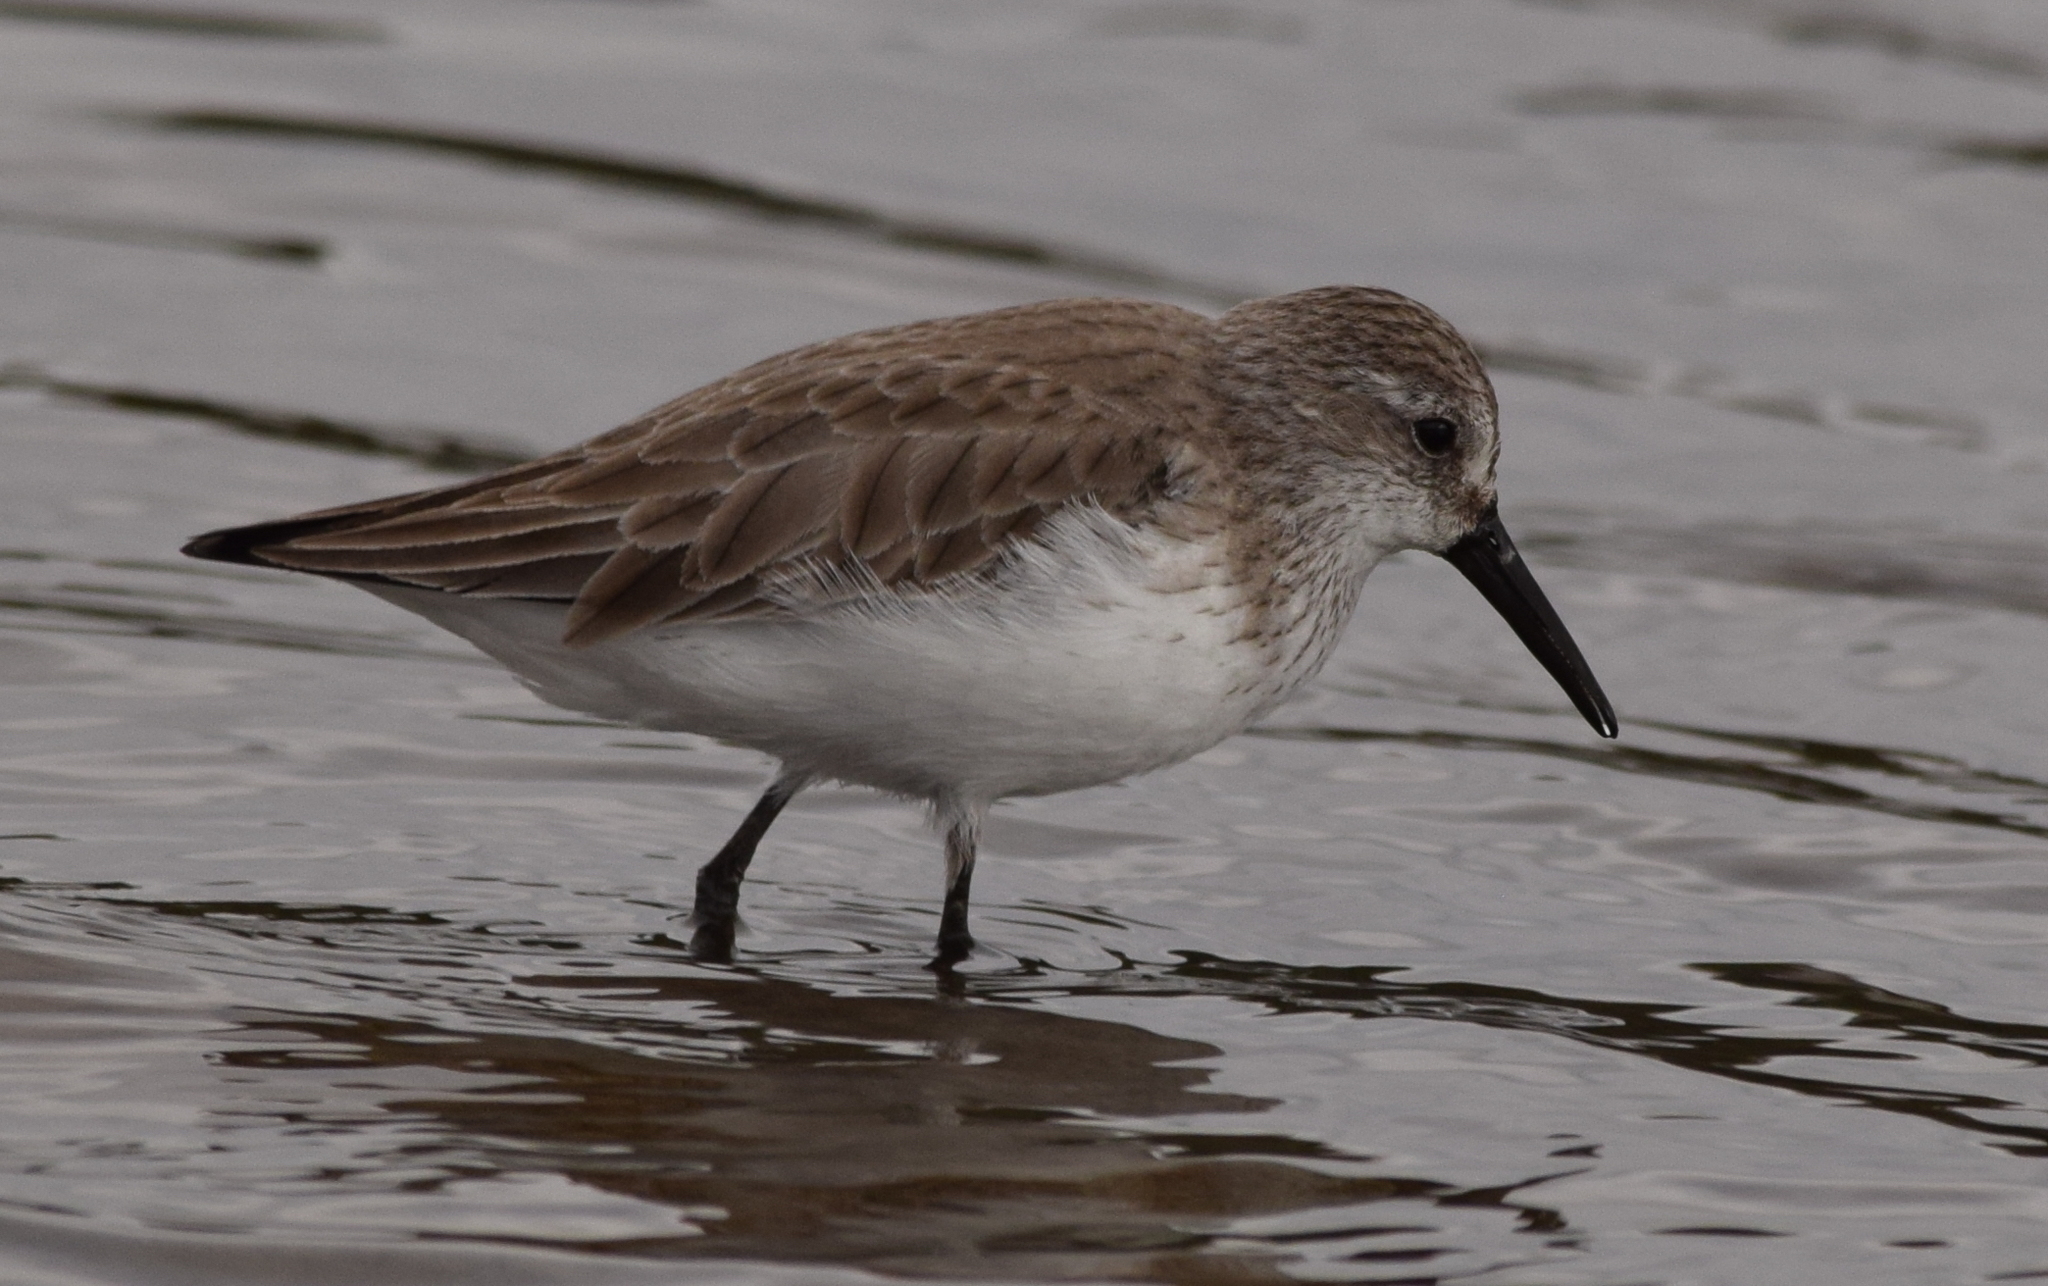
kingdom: Animalia
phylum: Chordata
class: Aves
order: Charadriiformes
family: Scolopacidae
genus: Calidris
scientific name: Calidris mauri
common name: Western sandpiper
